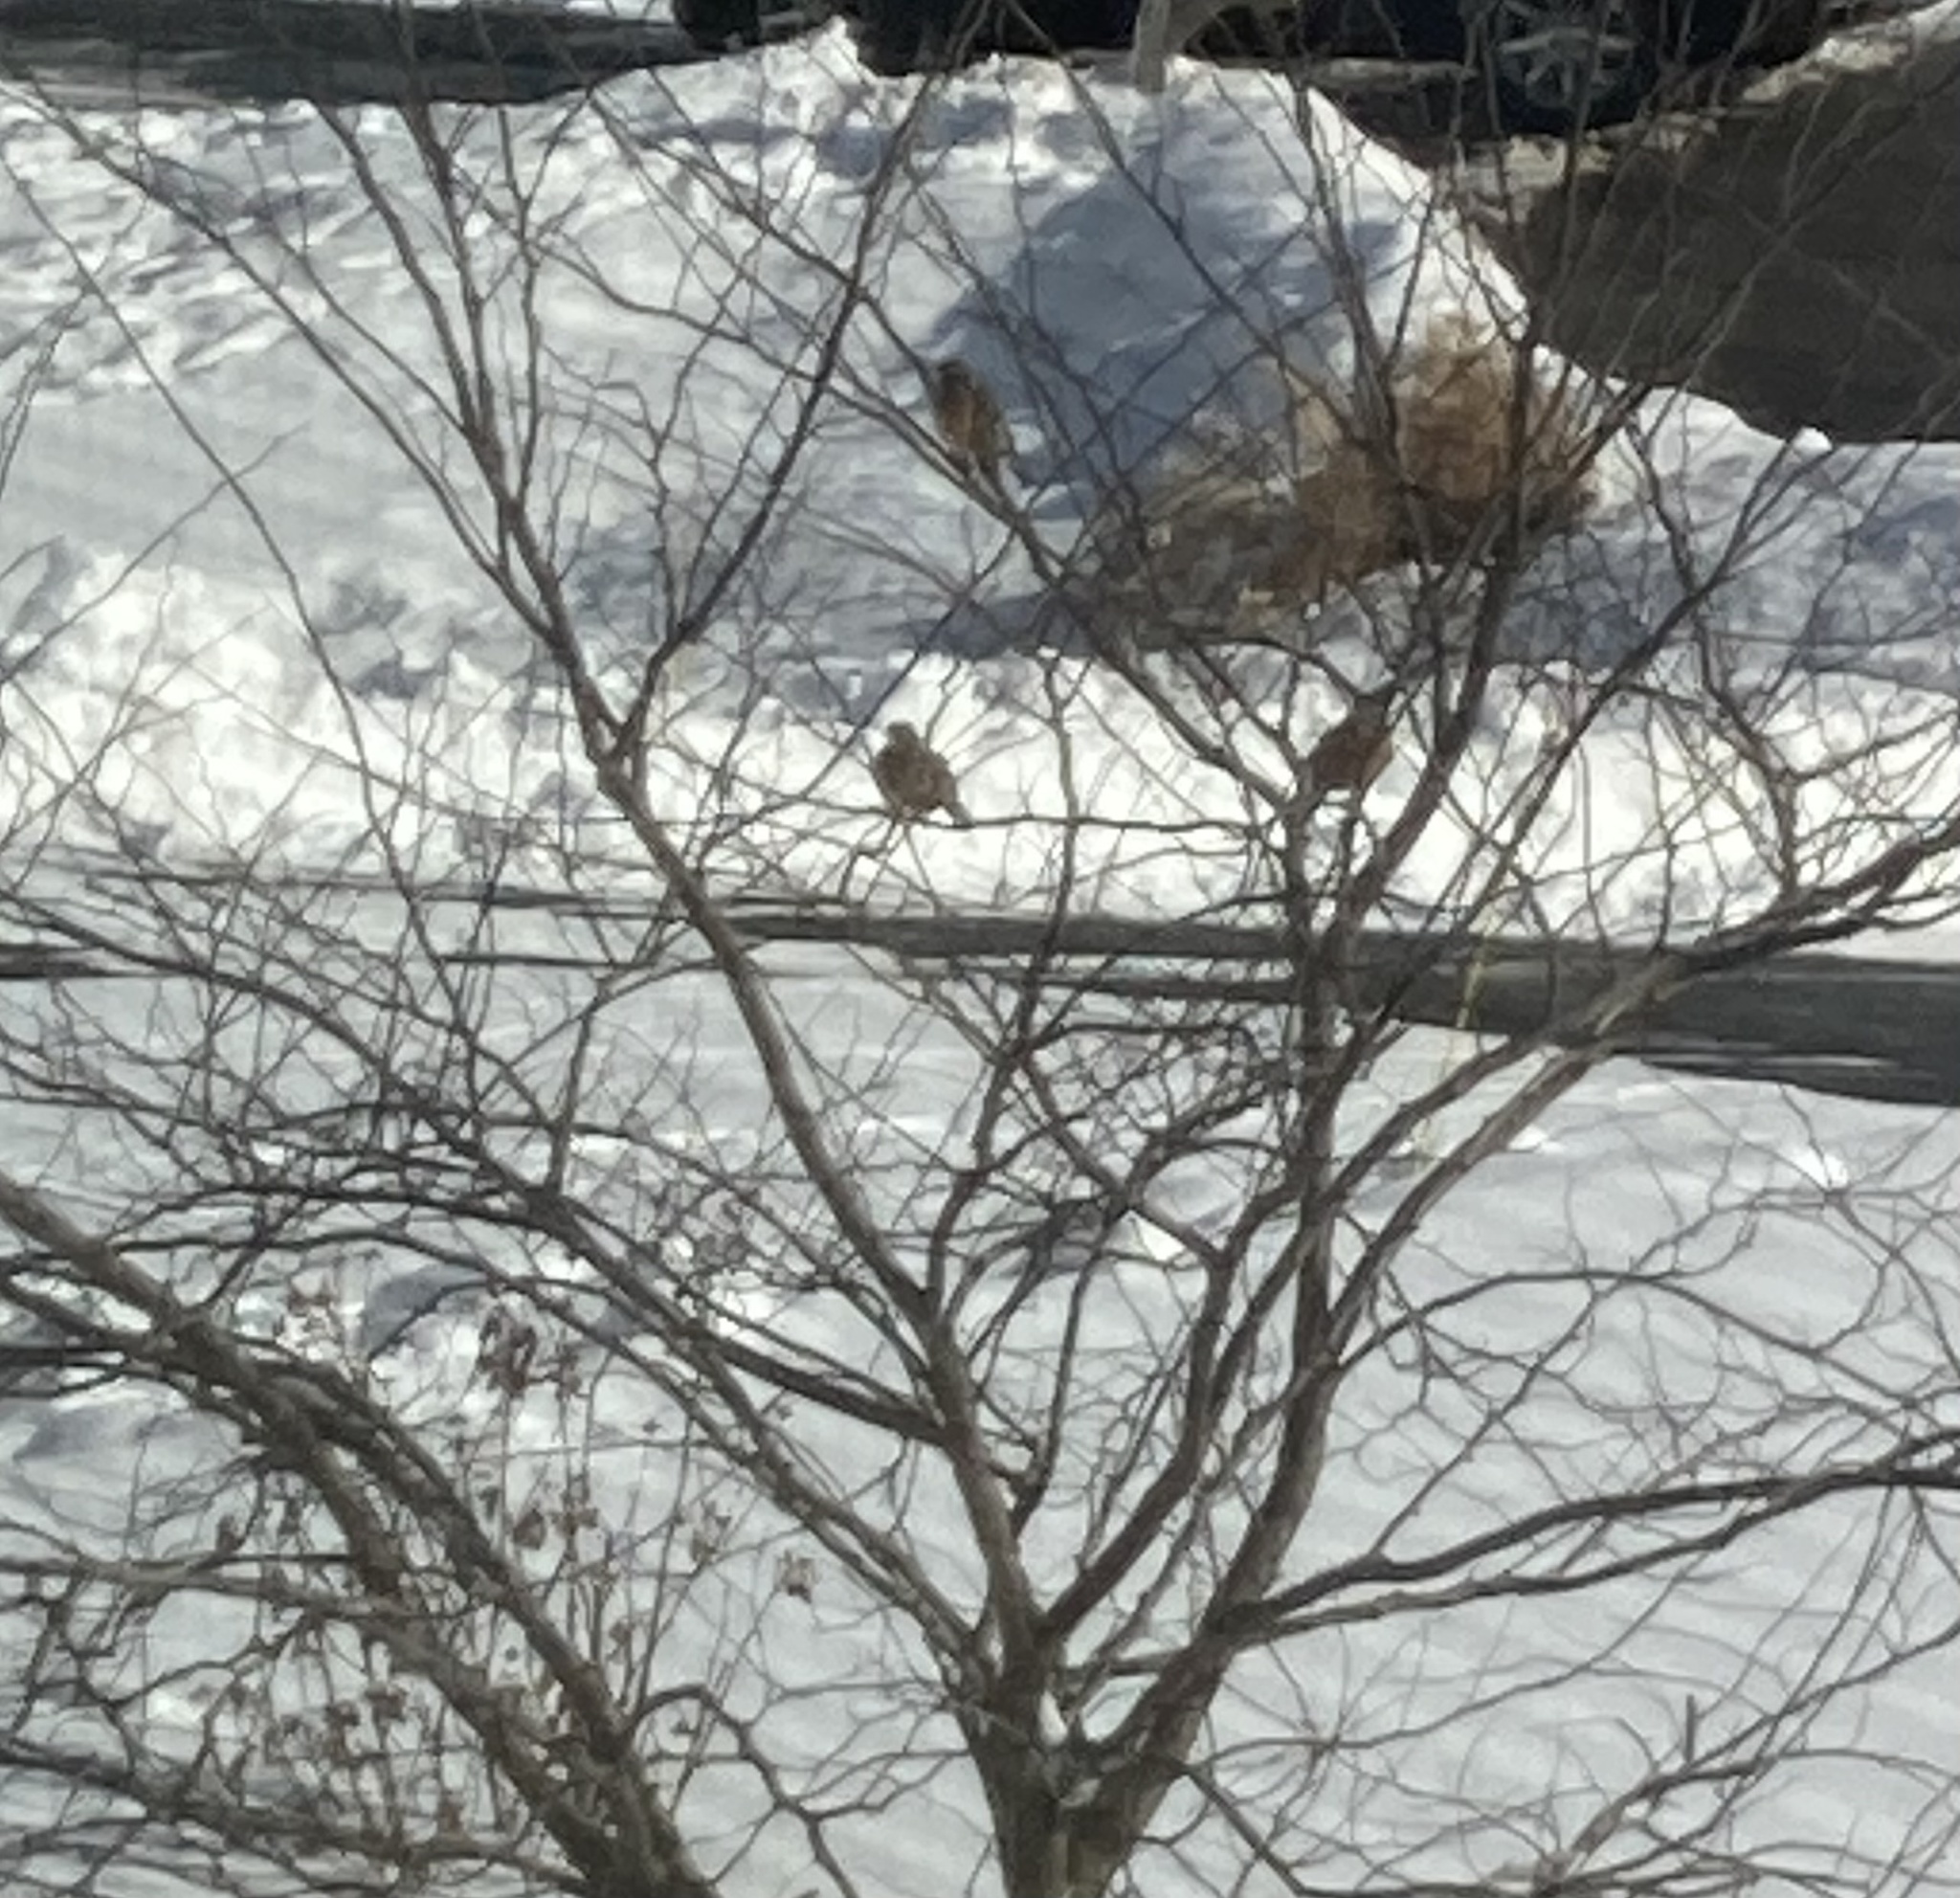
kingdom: Animalia
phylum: Chordata
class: Aves
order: Passeriformes
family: Turdidae
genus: Turdus
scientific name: Turdus migratorius
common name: American robin
